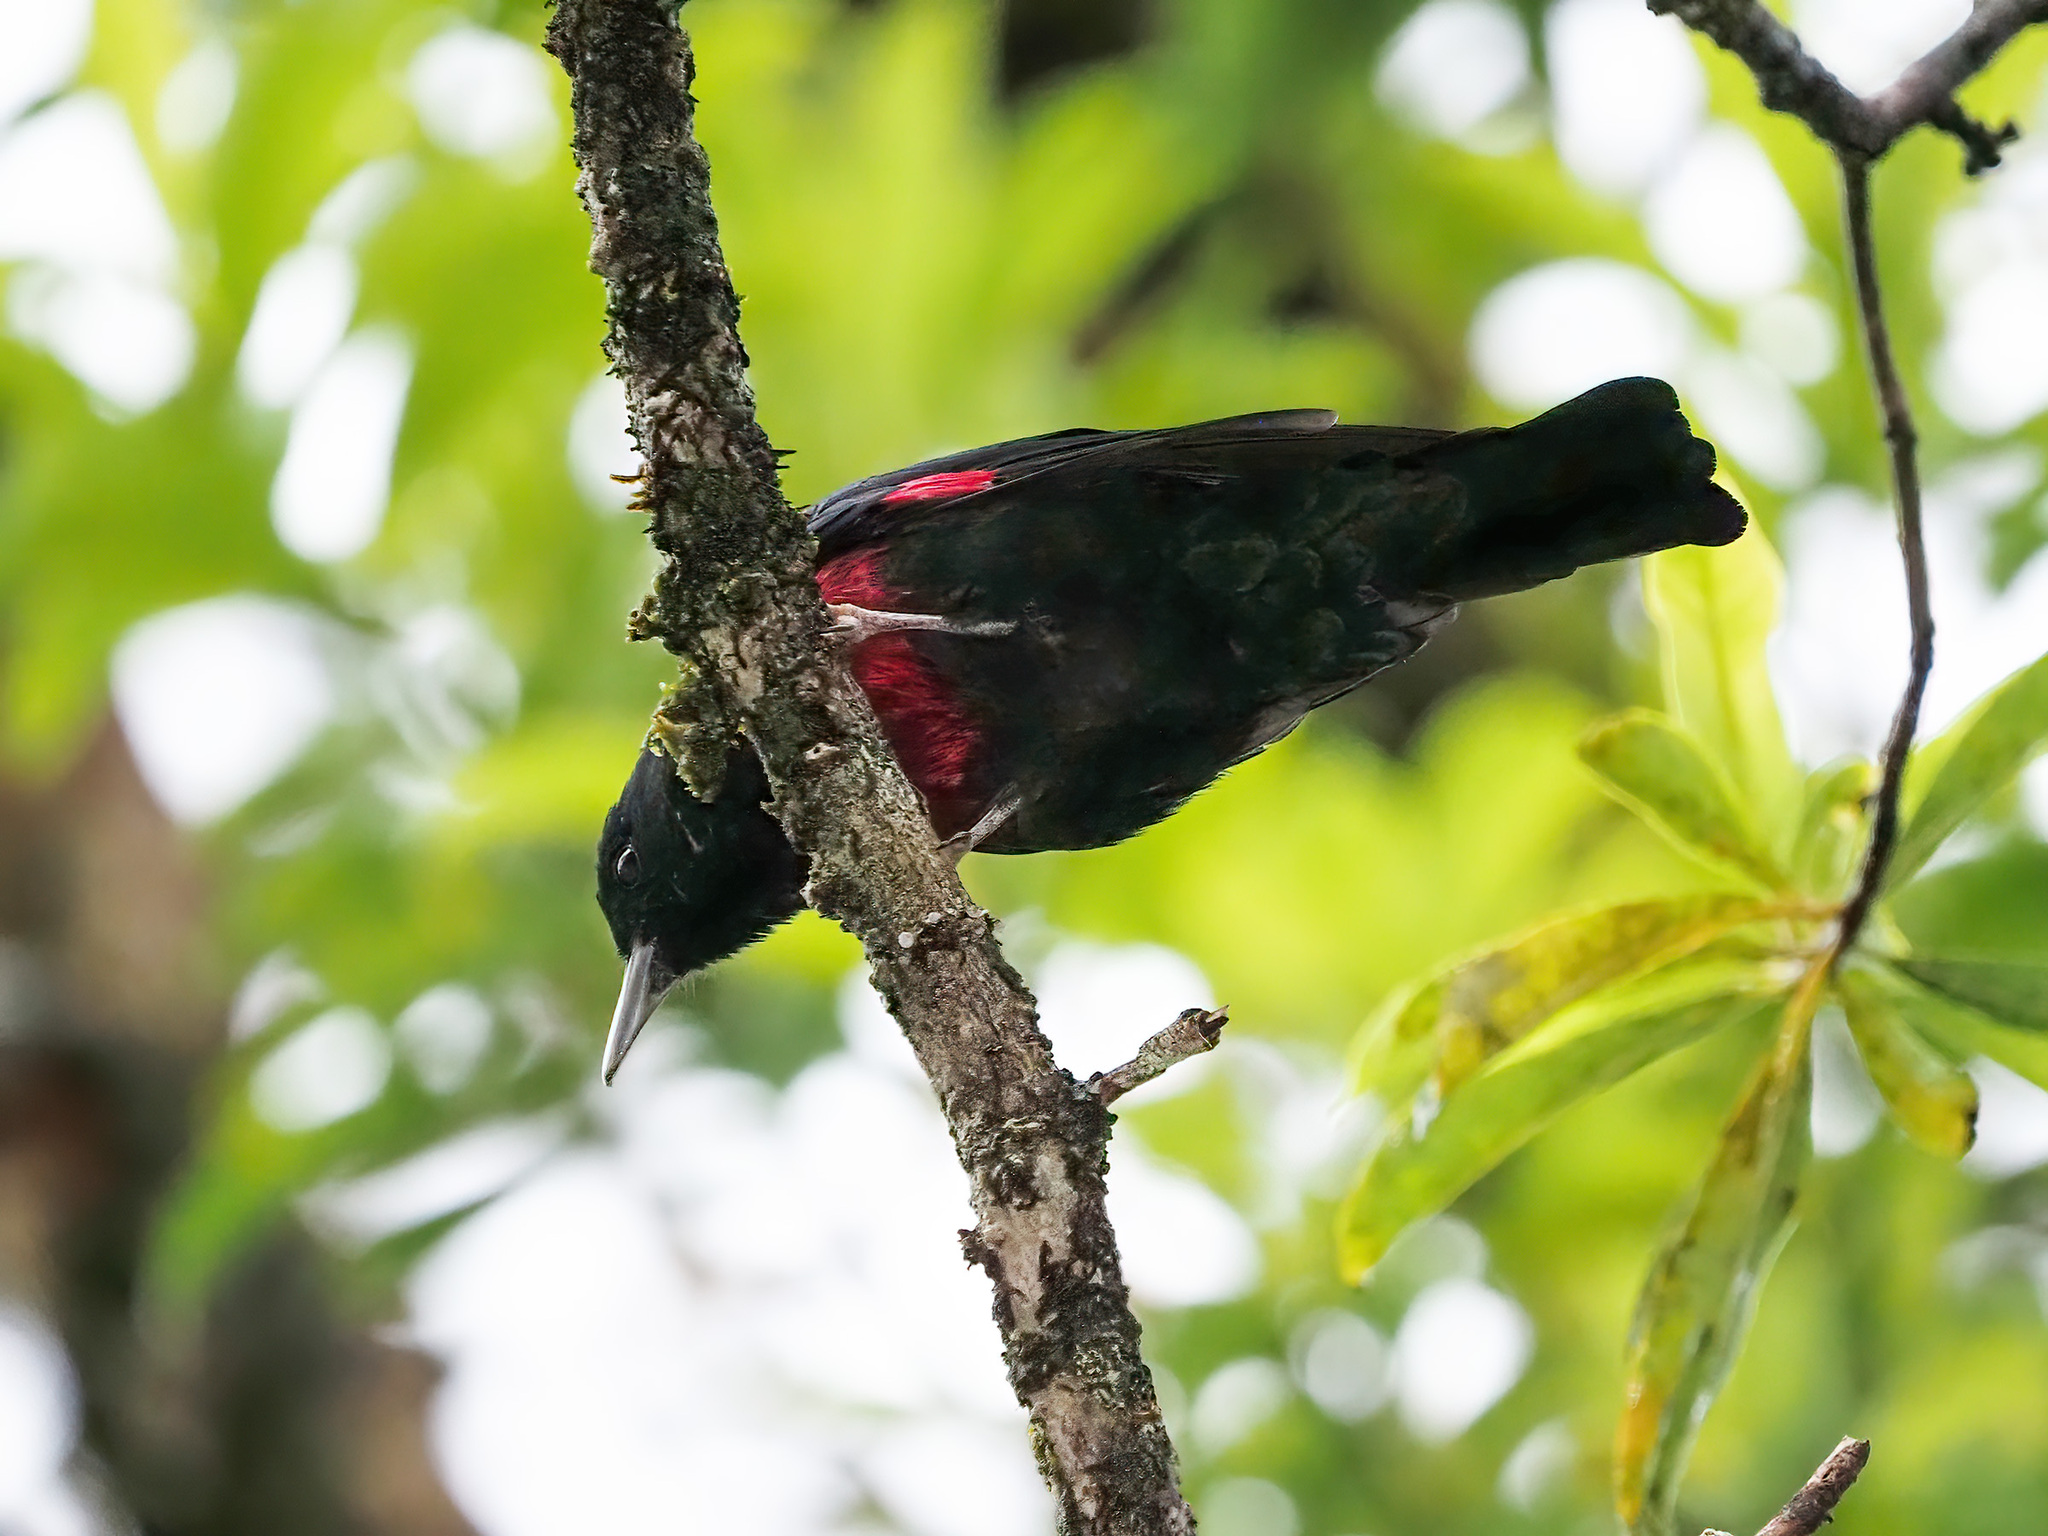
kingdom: Animalia
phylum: Chordata
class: Aves
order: Passeriformes
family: Oriolidae
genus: Oriolus
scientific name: Oriolus cruentus
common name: Black-and-crimson oriole
